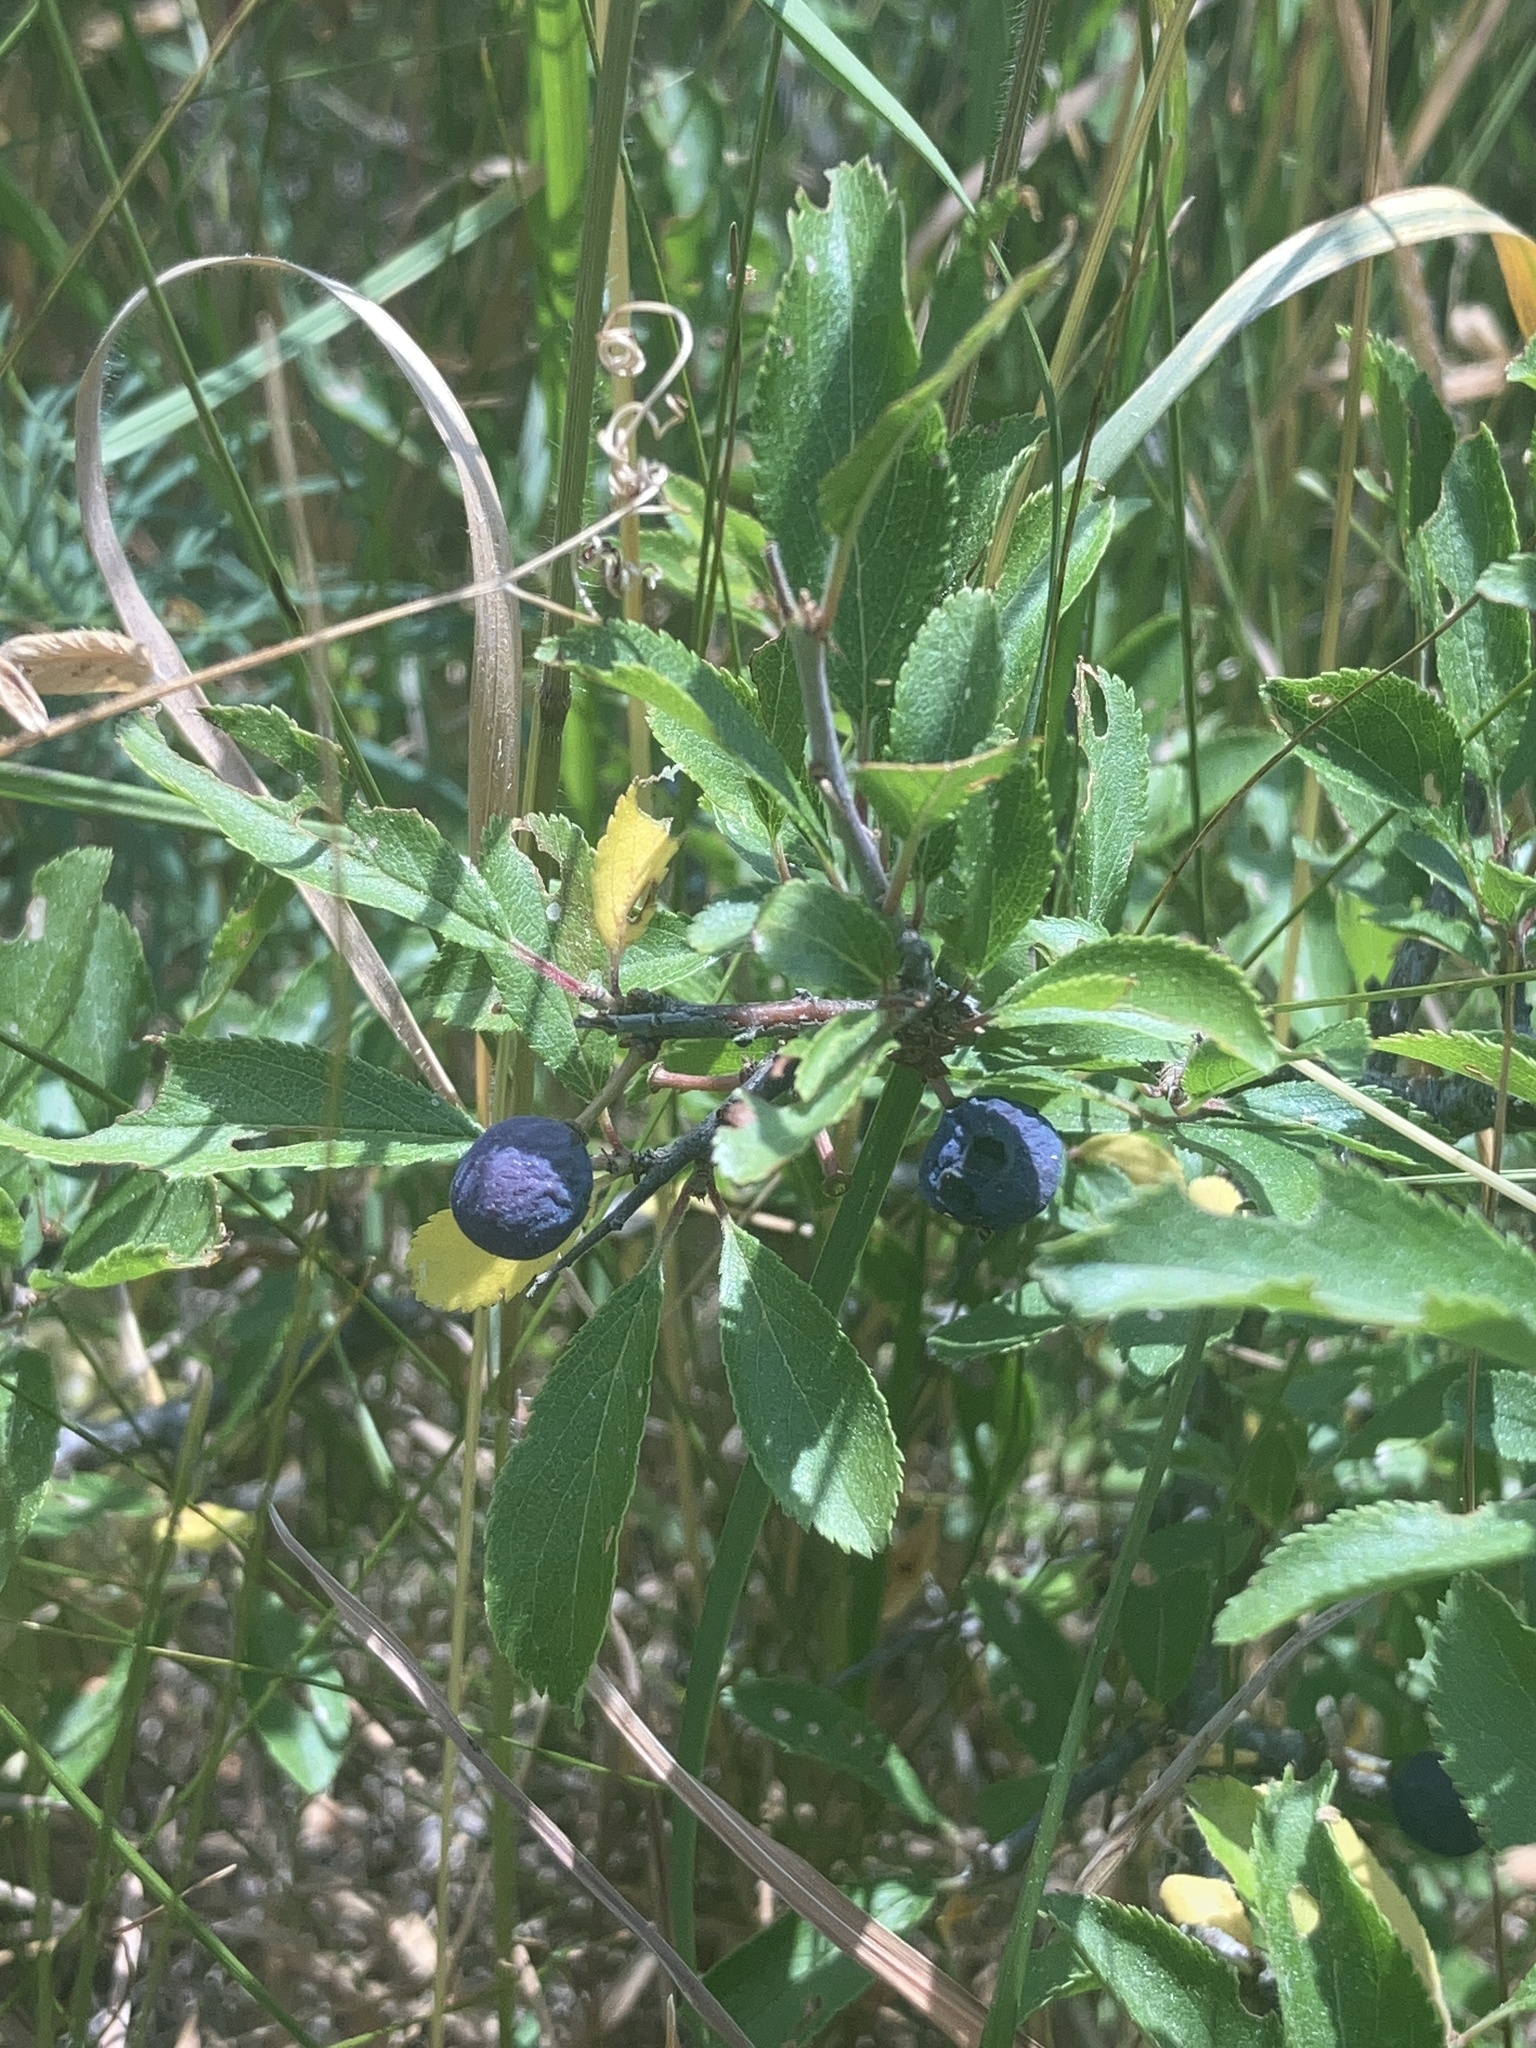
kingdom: Plantae
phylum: Tracheophyta
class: Magnoliopsida
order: Rosales
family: Rosaceae
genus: Prunus
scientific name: Prunus spinosa
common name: Blackthorn
